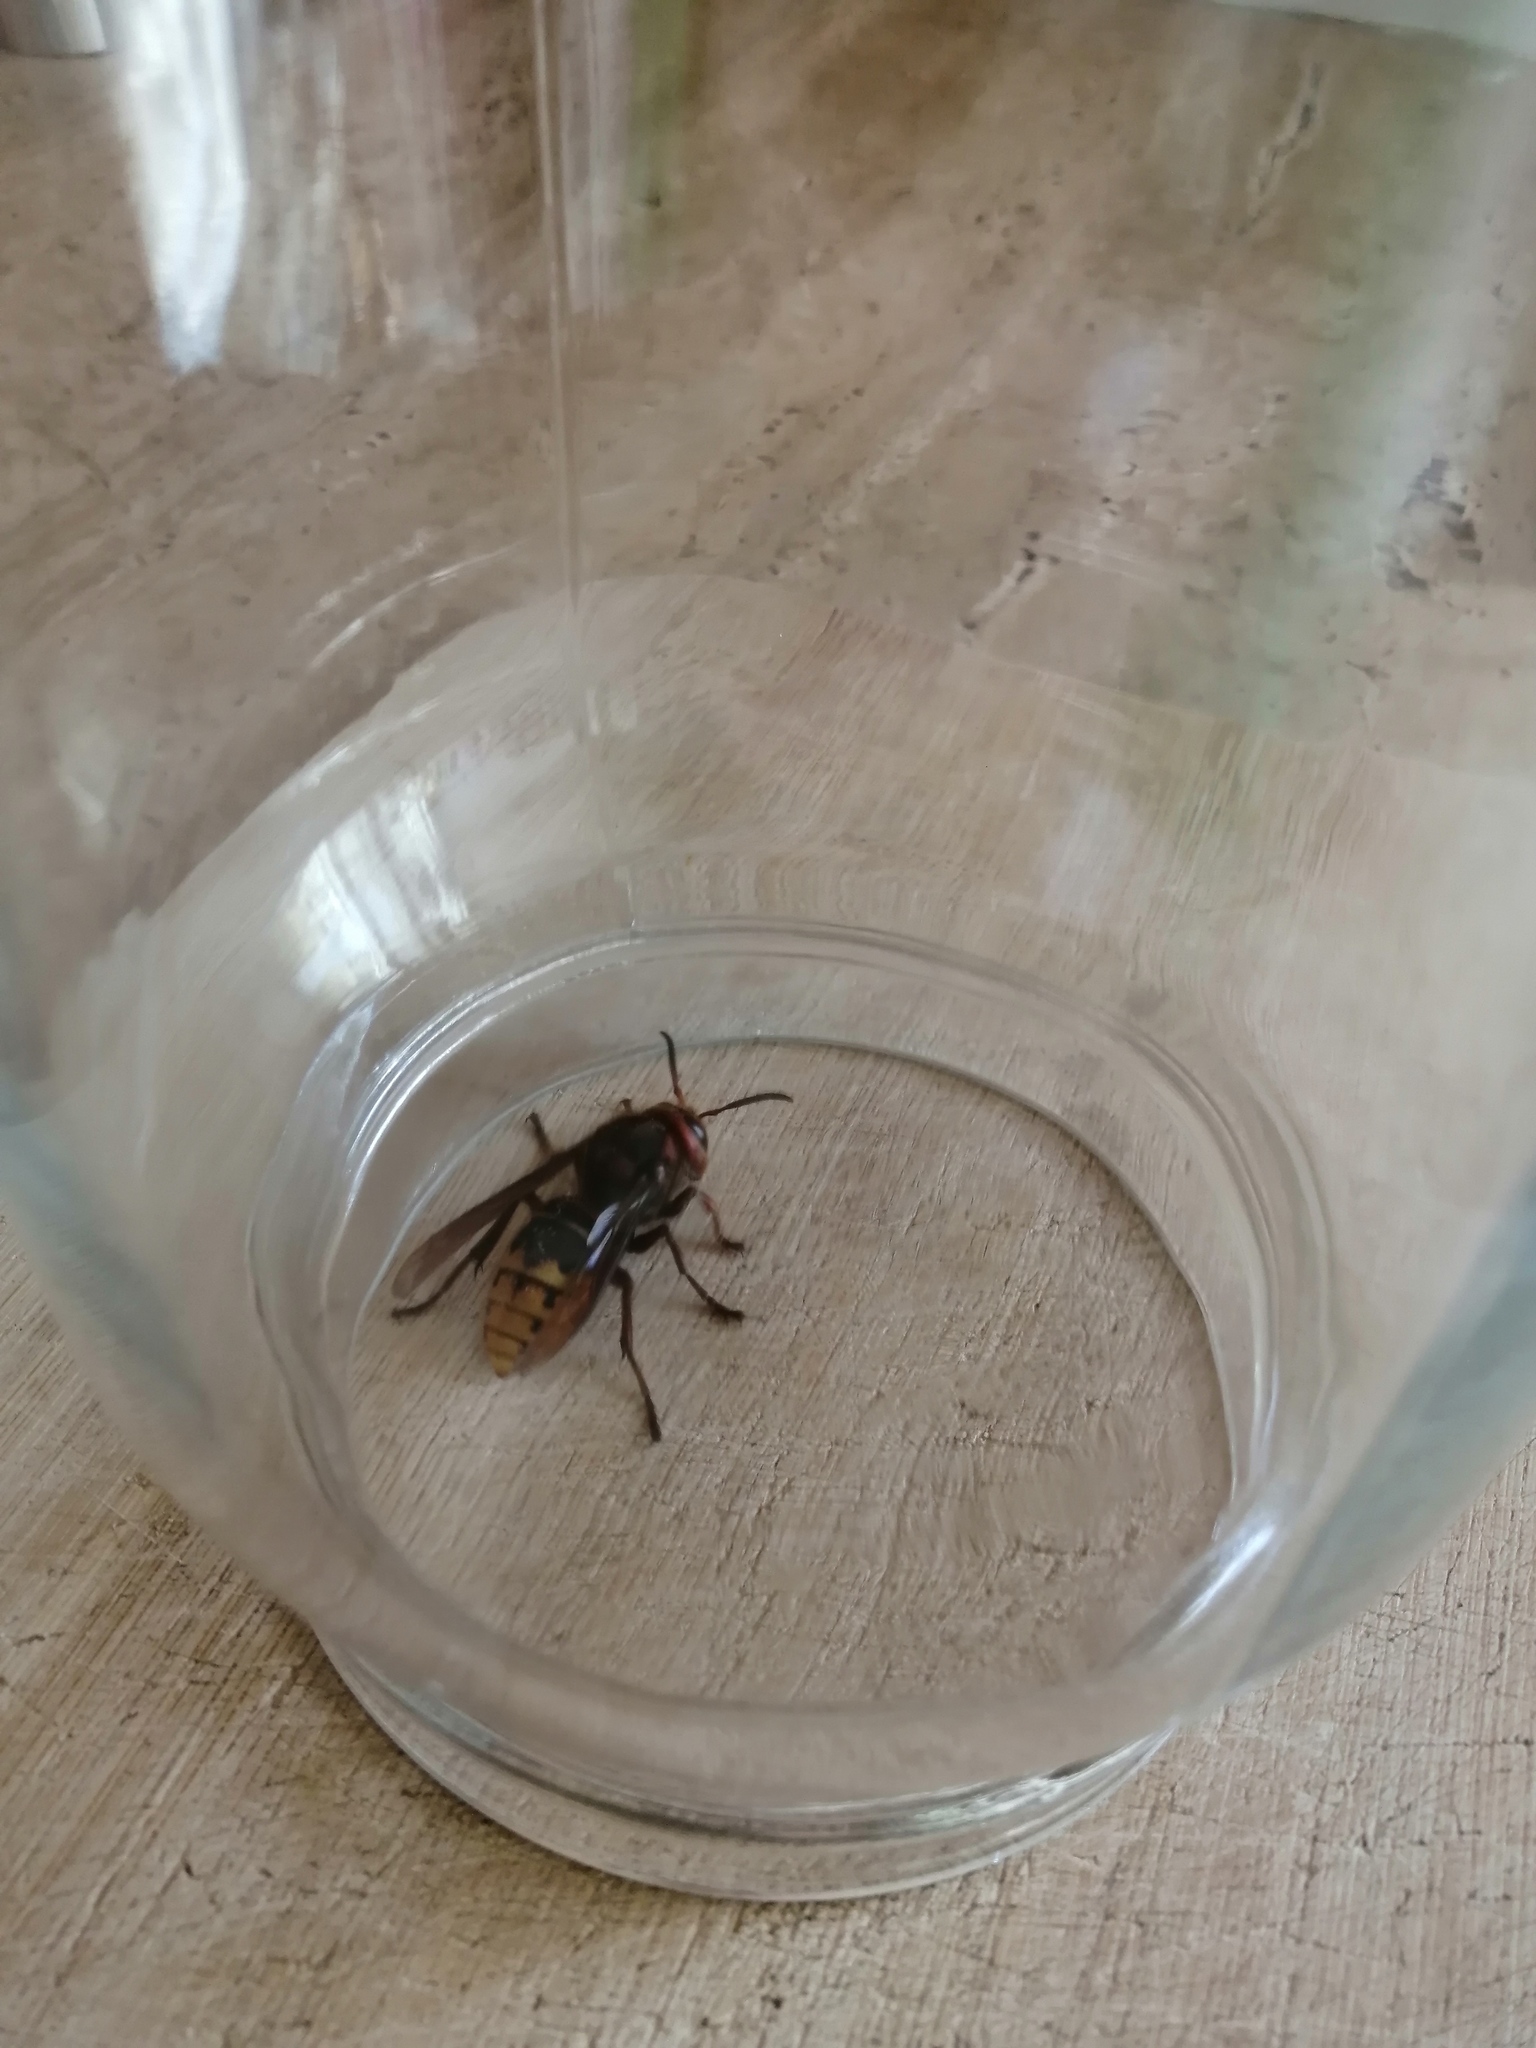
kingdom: Animalia
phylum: Arthropoda
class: Insecta
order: Hymenoptera
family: Vespidae
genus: Vespa
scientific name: Vespa crabro
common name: Hornet
